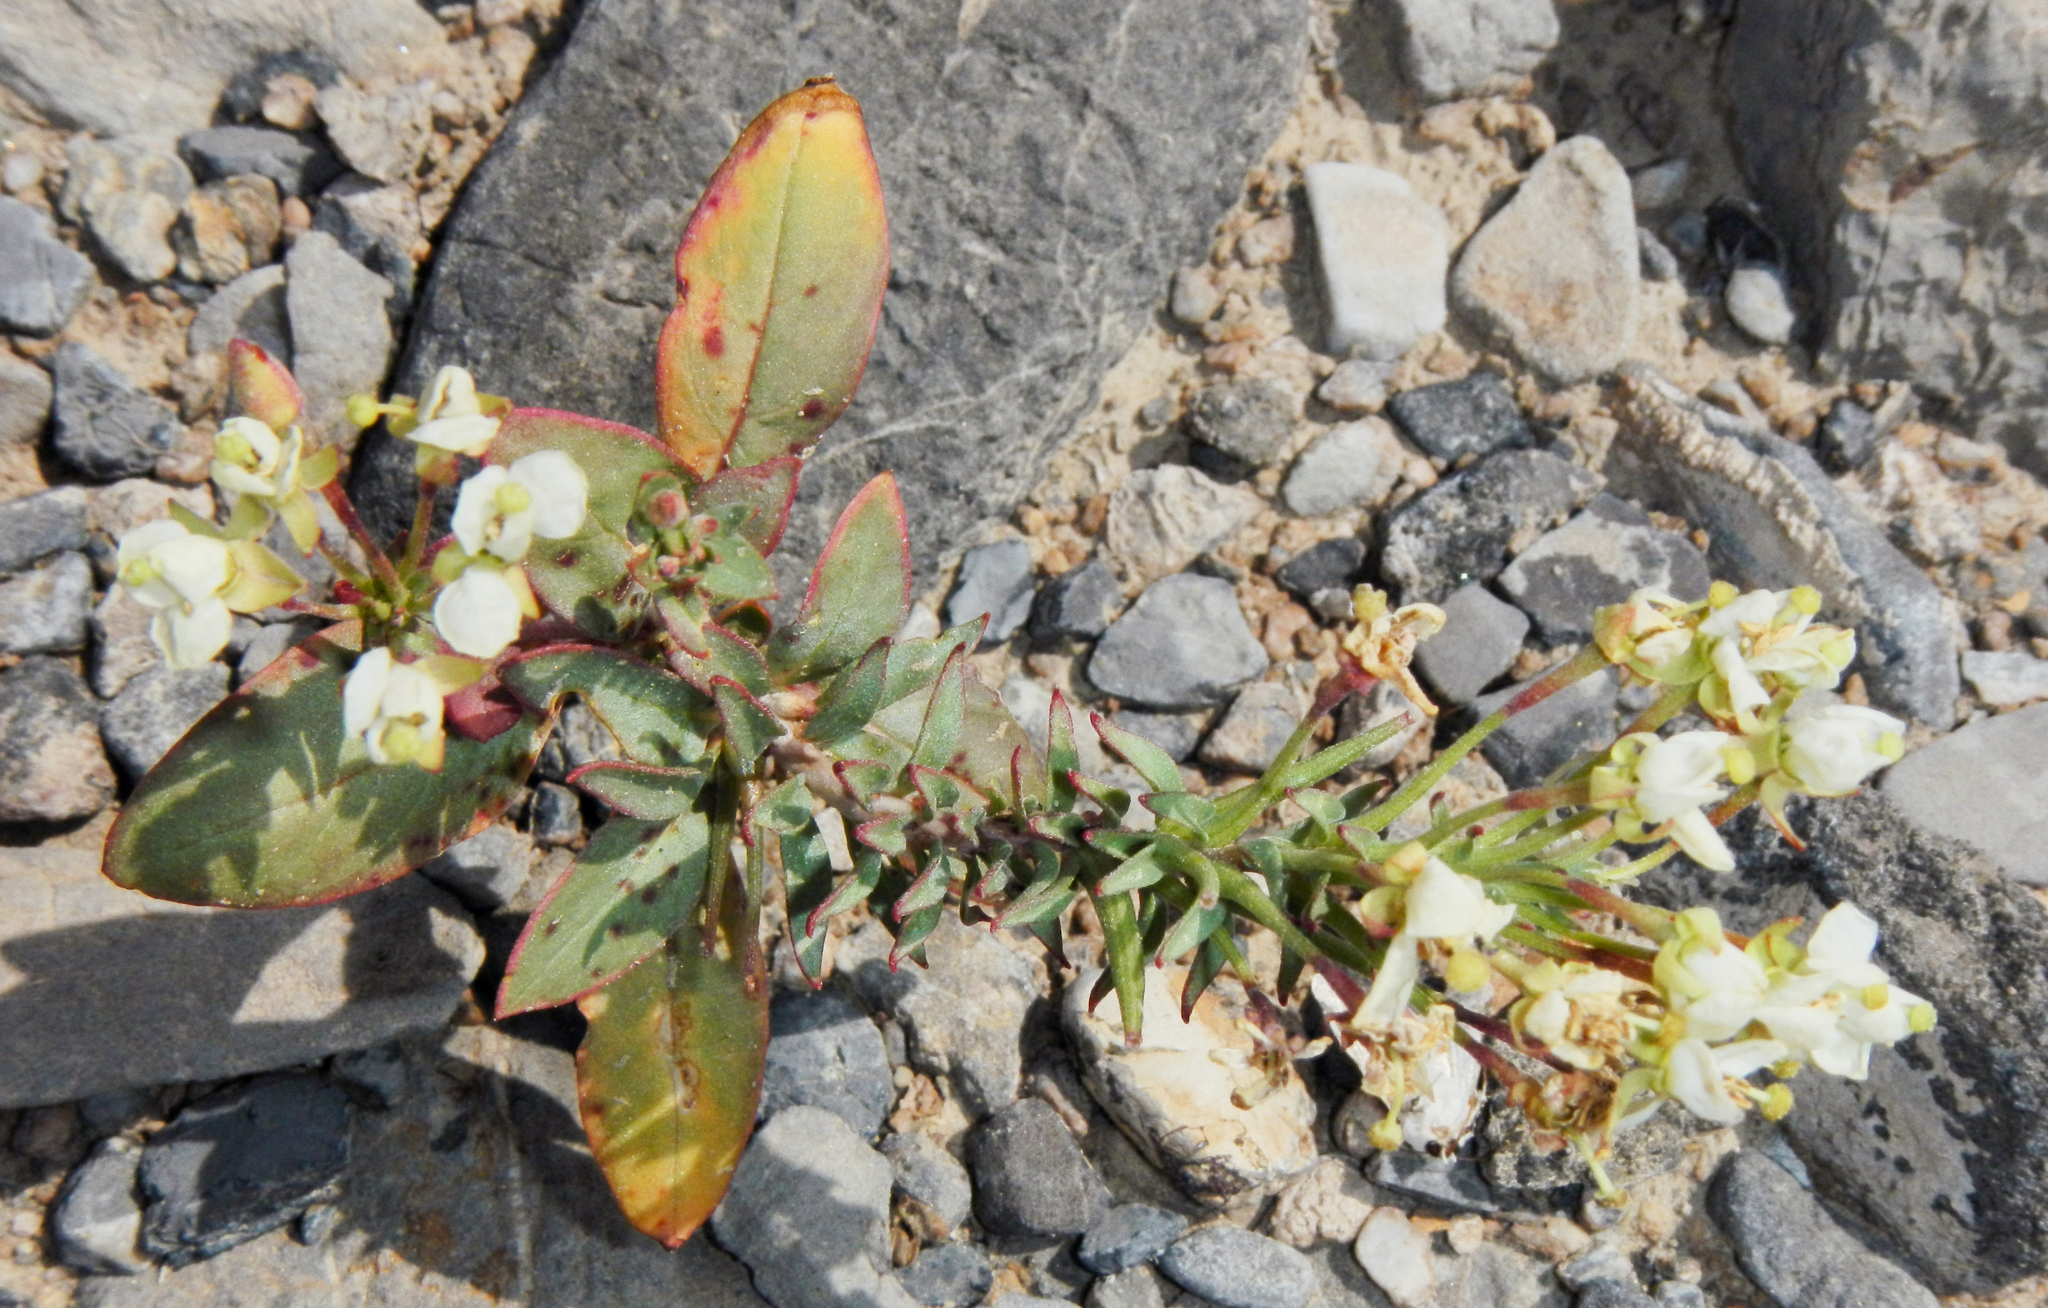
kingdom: Plantae
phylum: Tracheophyta
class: Magnoliopsida
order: Myrtales
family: Onagraceae
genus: Eremothera
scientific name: Eremothera boothii
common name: Booth's evening primrose
